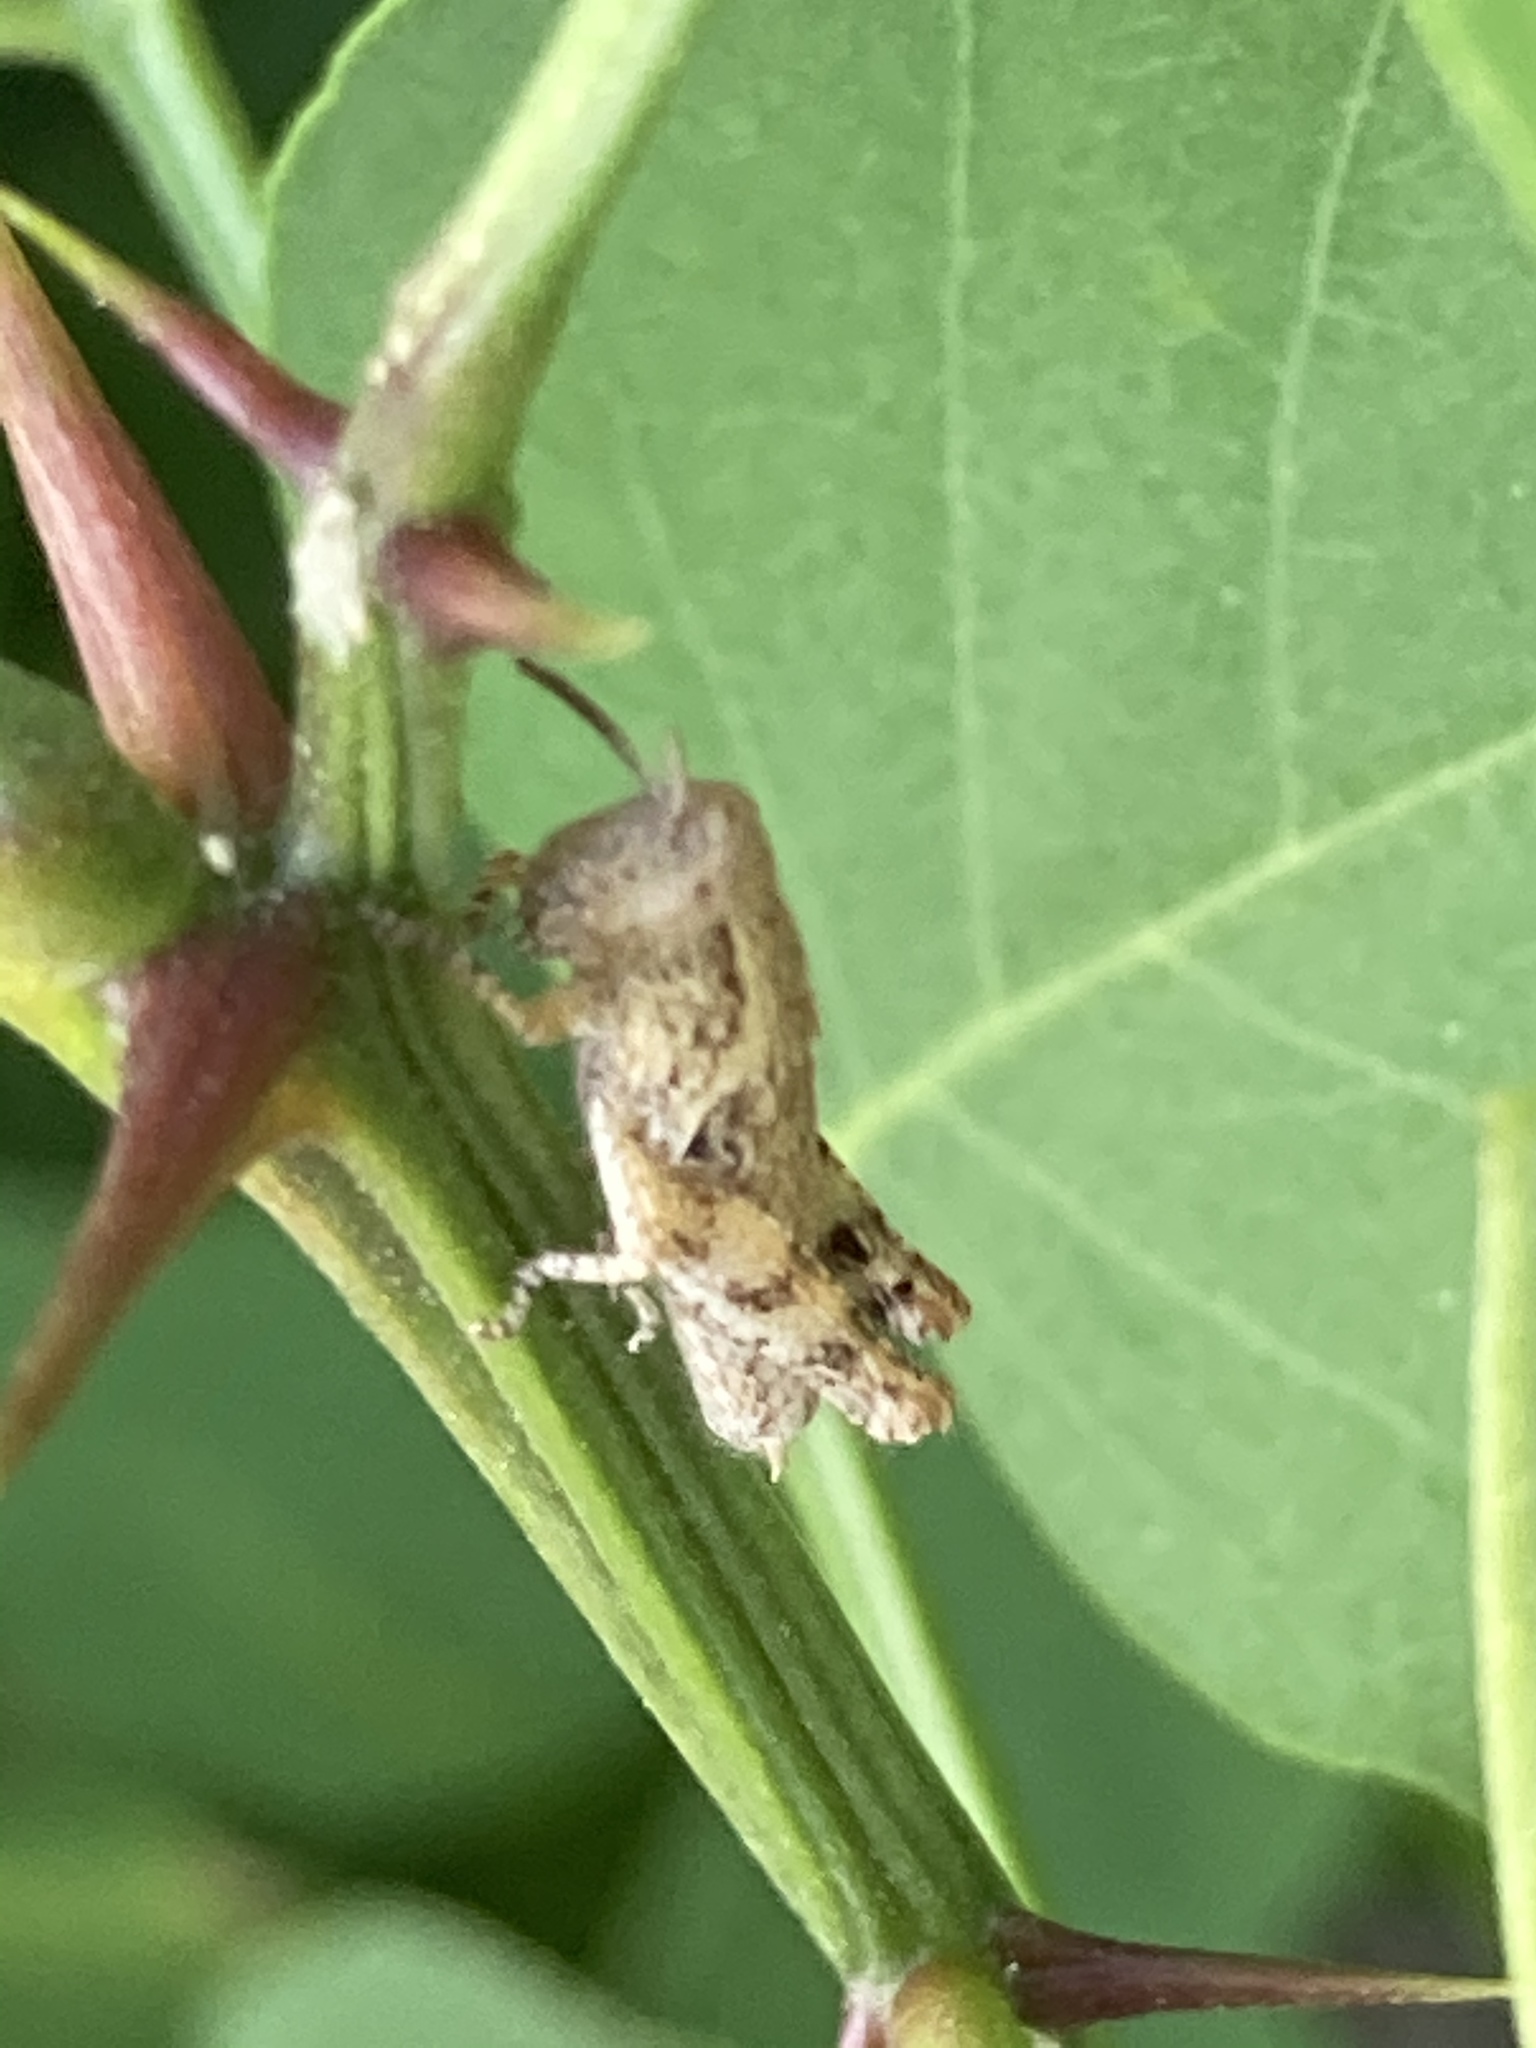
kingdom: Animalia
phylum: Arthropoda
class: Insecta
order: Orthoptera
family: Acrididae
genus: Pezotettix
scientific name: Pezotettix anatolica
